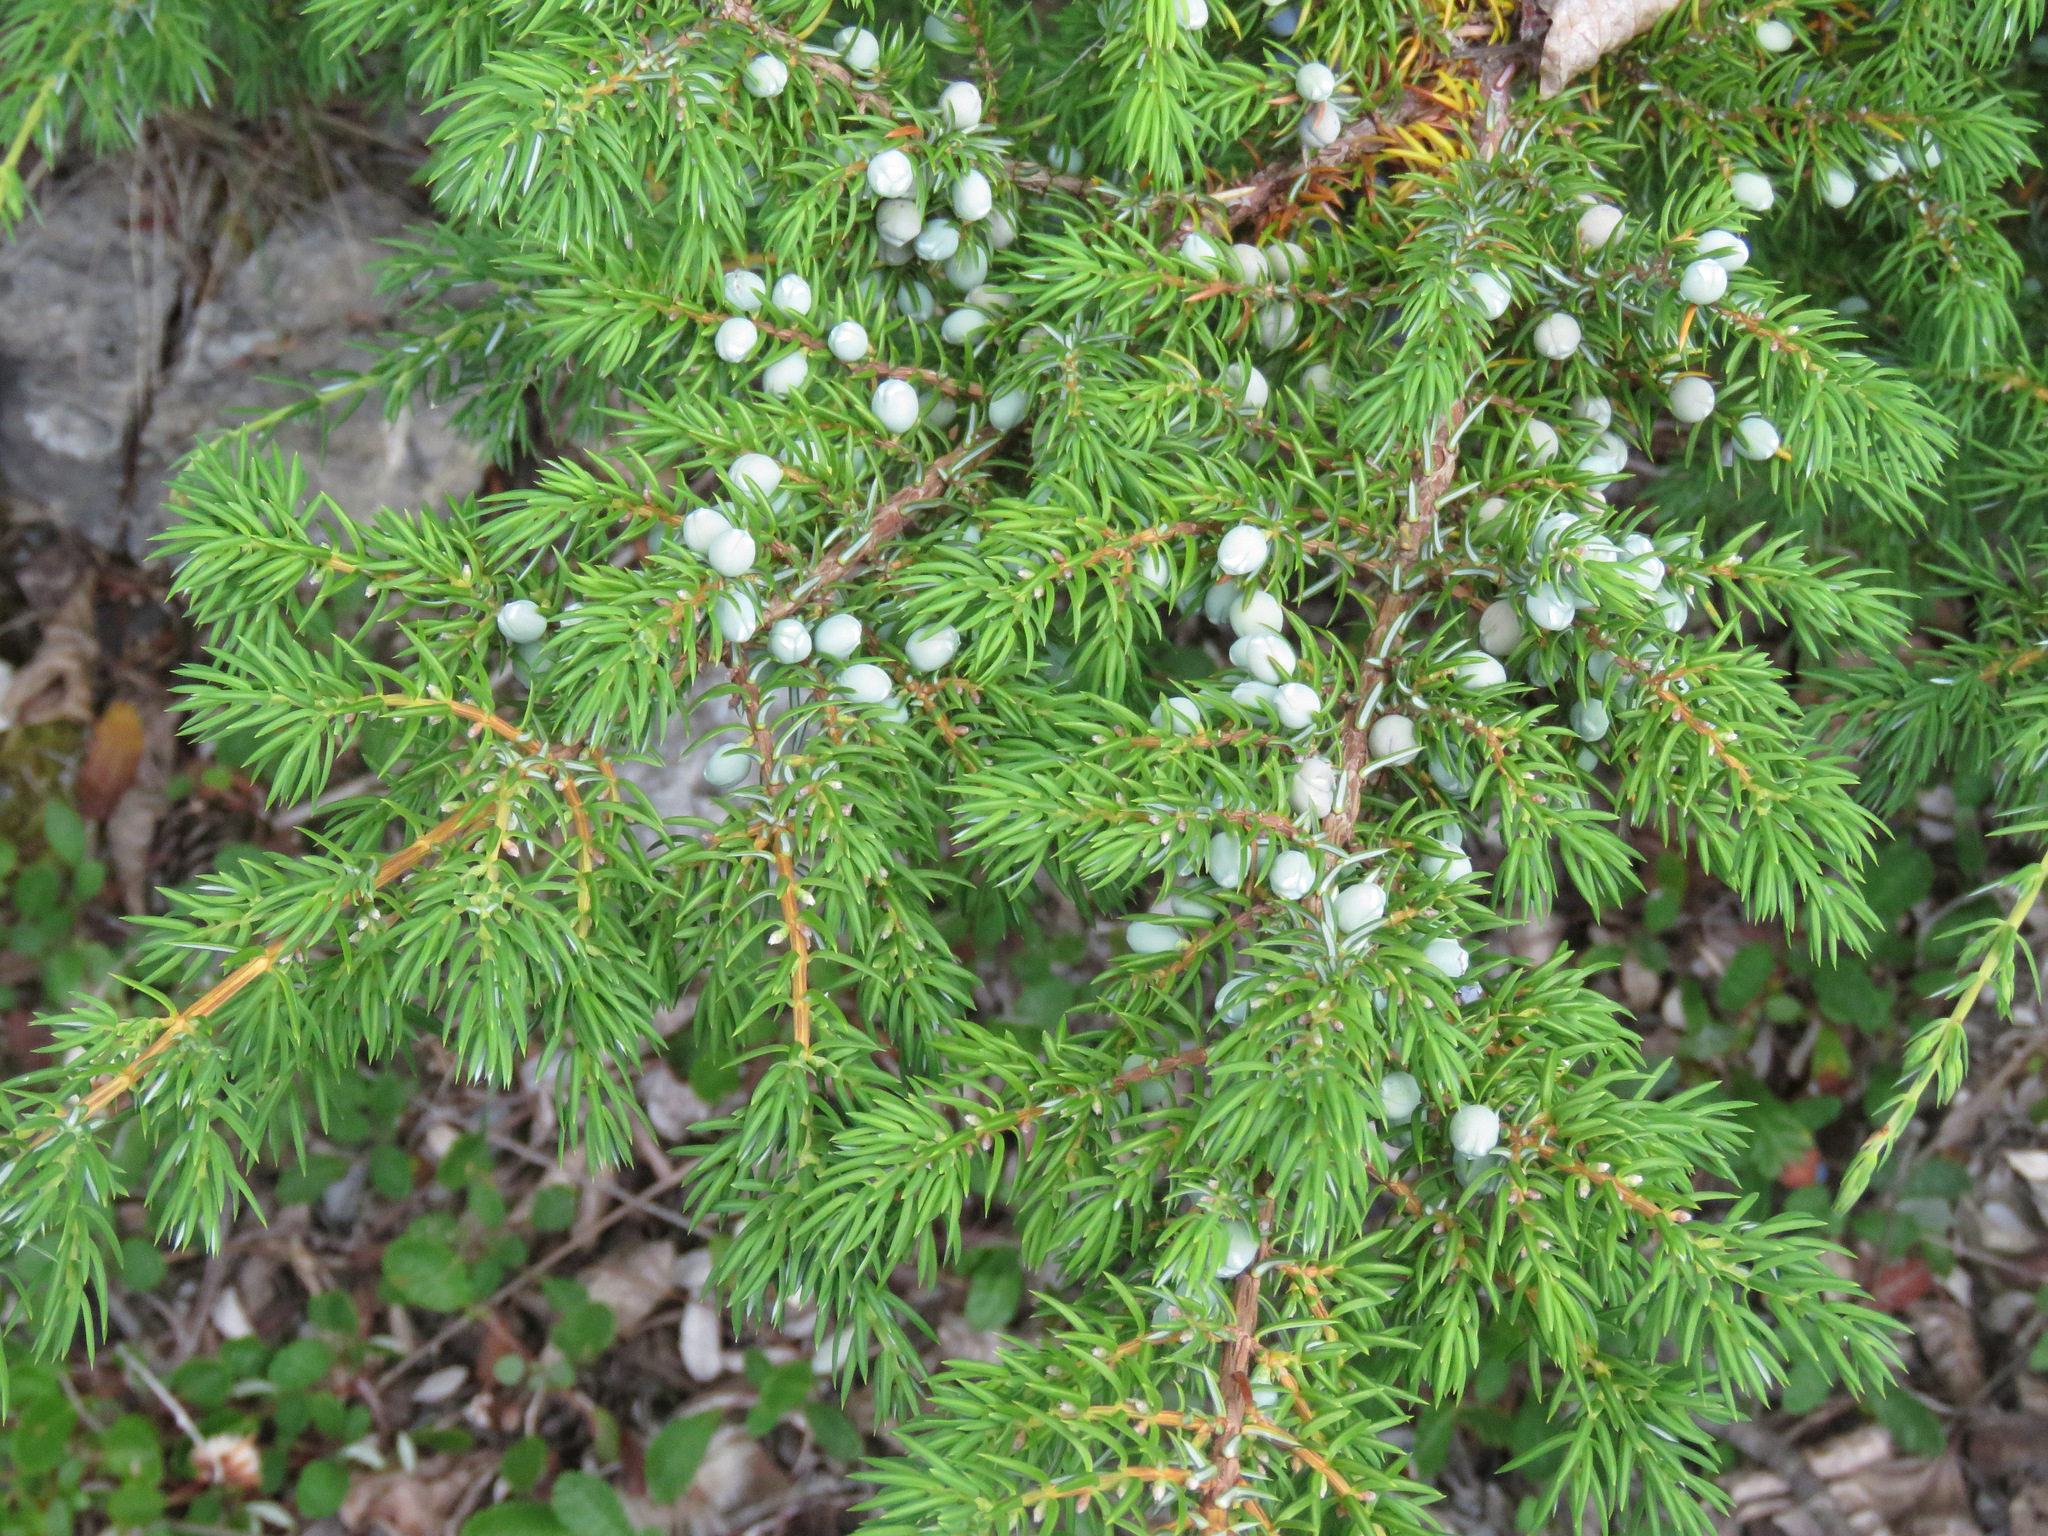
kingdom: Plantae
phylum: Tracheophyta
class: Pinopsida
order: Pinales
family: Cupressaceae
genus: Juniperus
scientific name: Juniperus communis
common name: Common juniper
